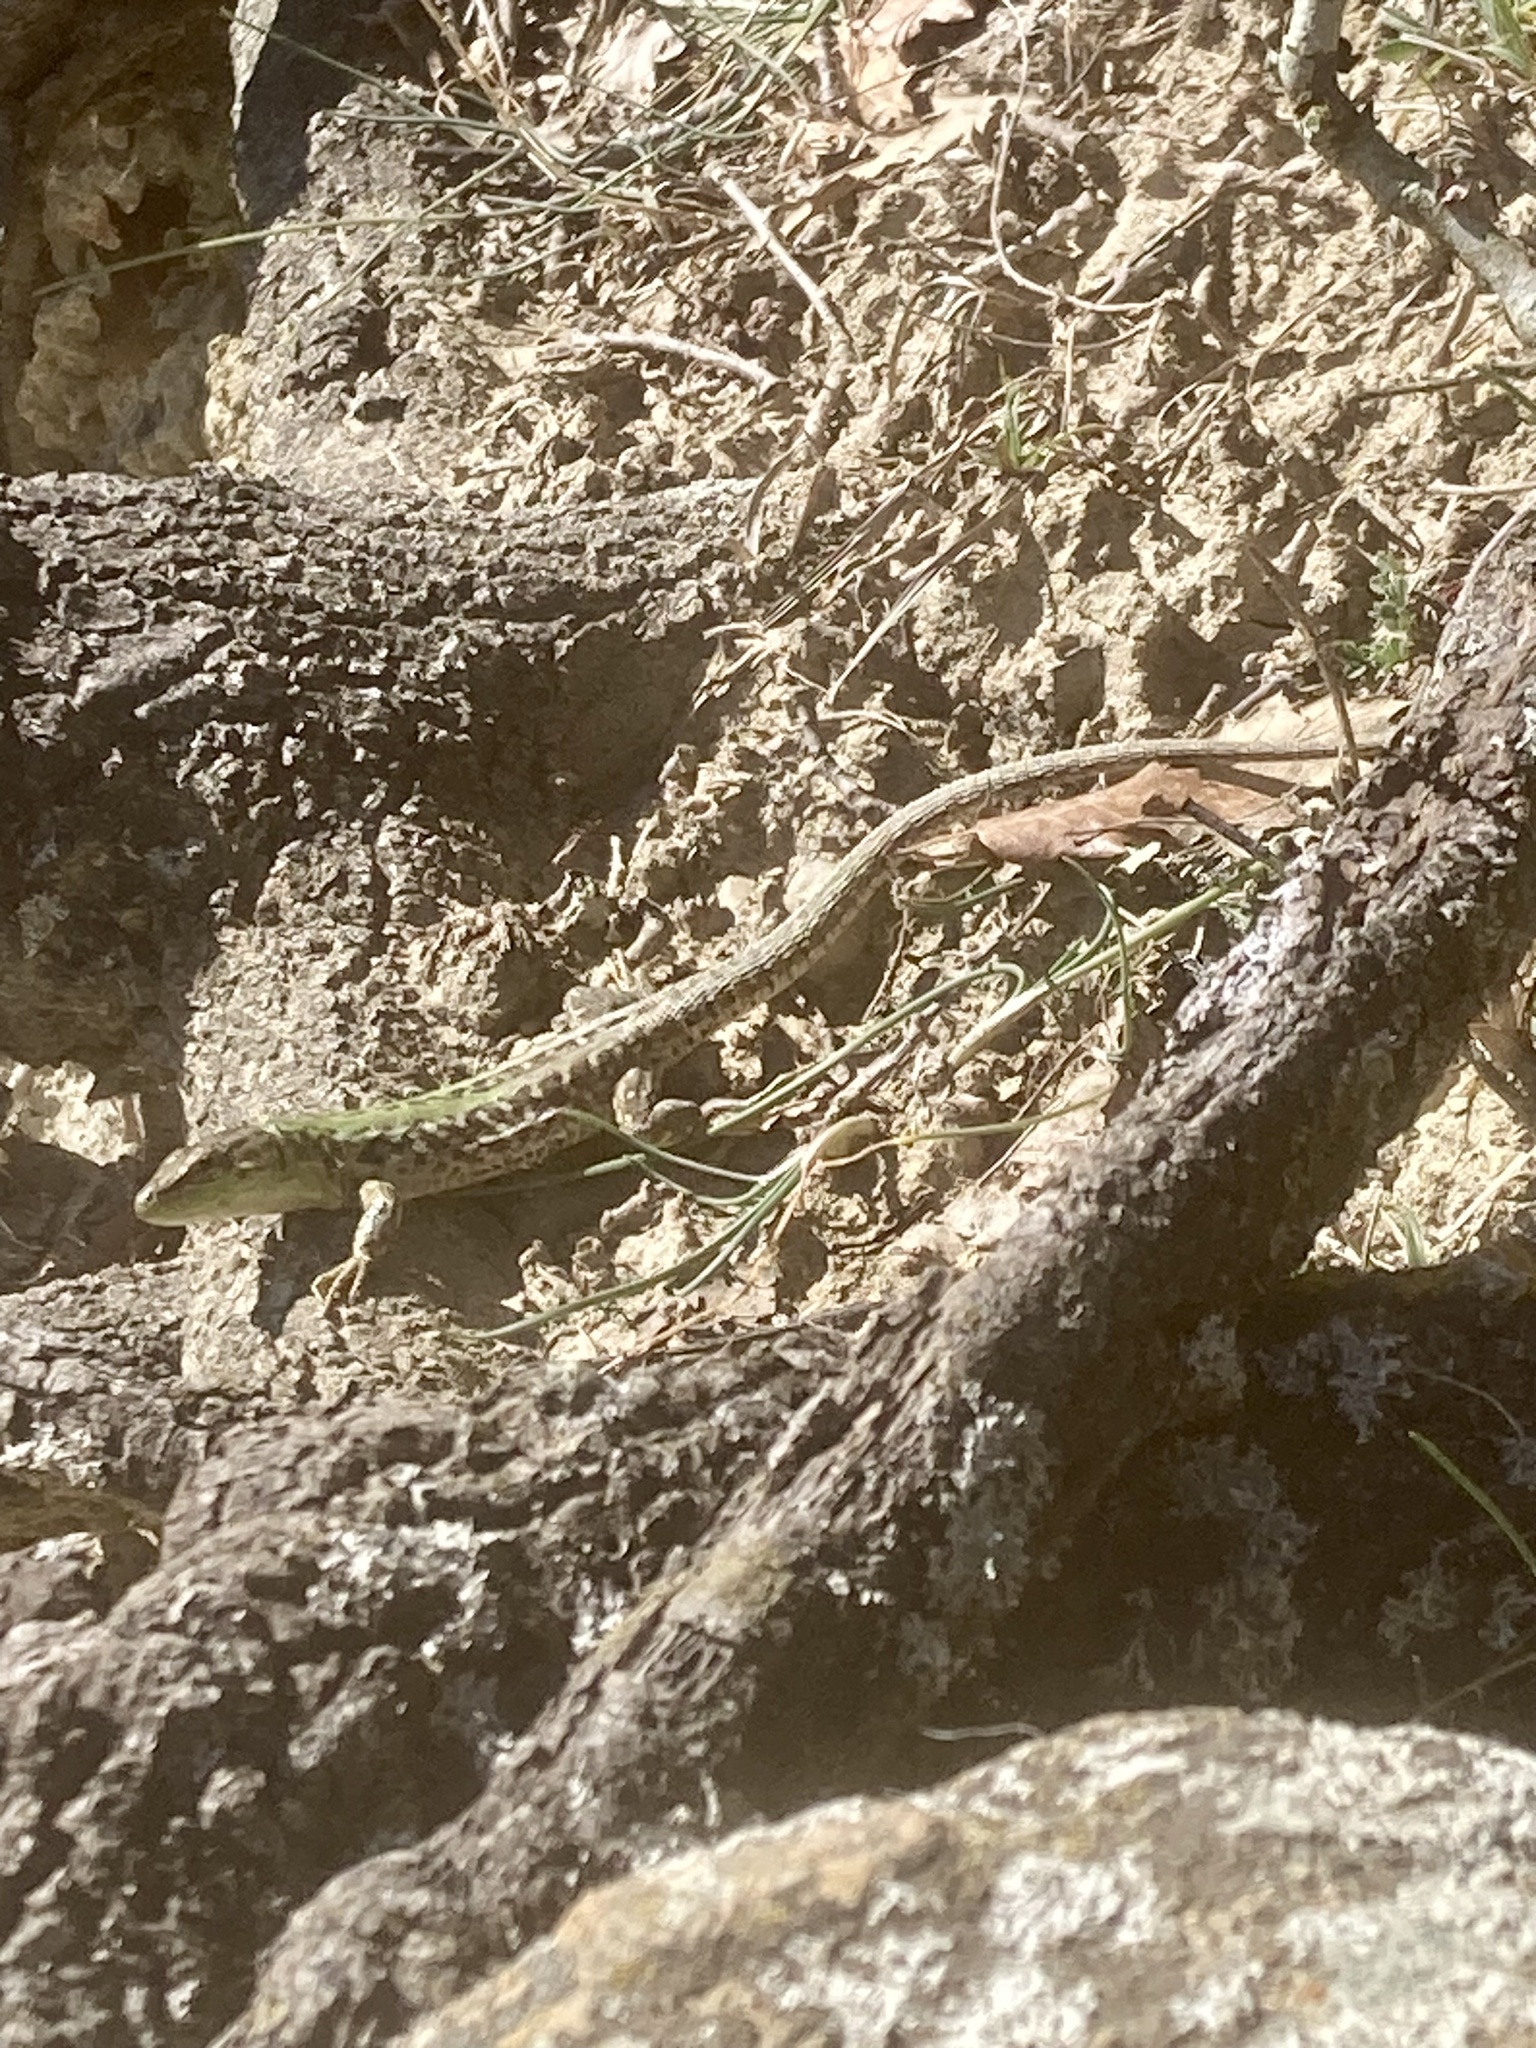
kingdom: Animalia
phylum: Chordata
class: Squamata
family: Lacertidae
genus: Podarcis
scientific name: Podarcis siculus
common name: Italian wall lizard
